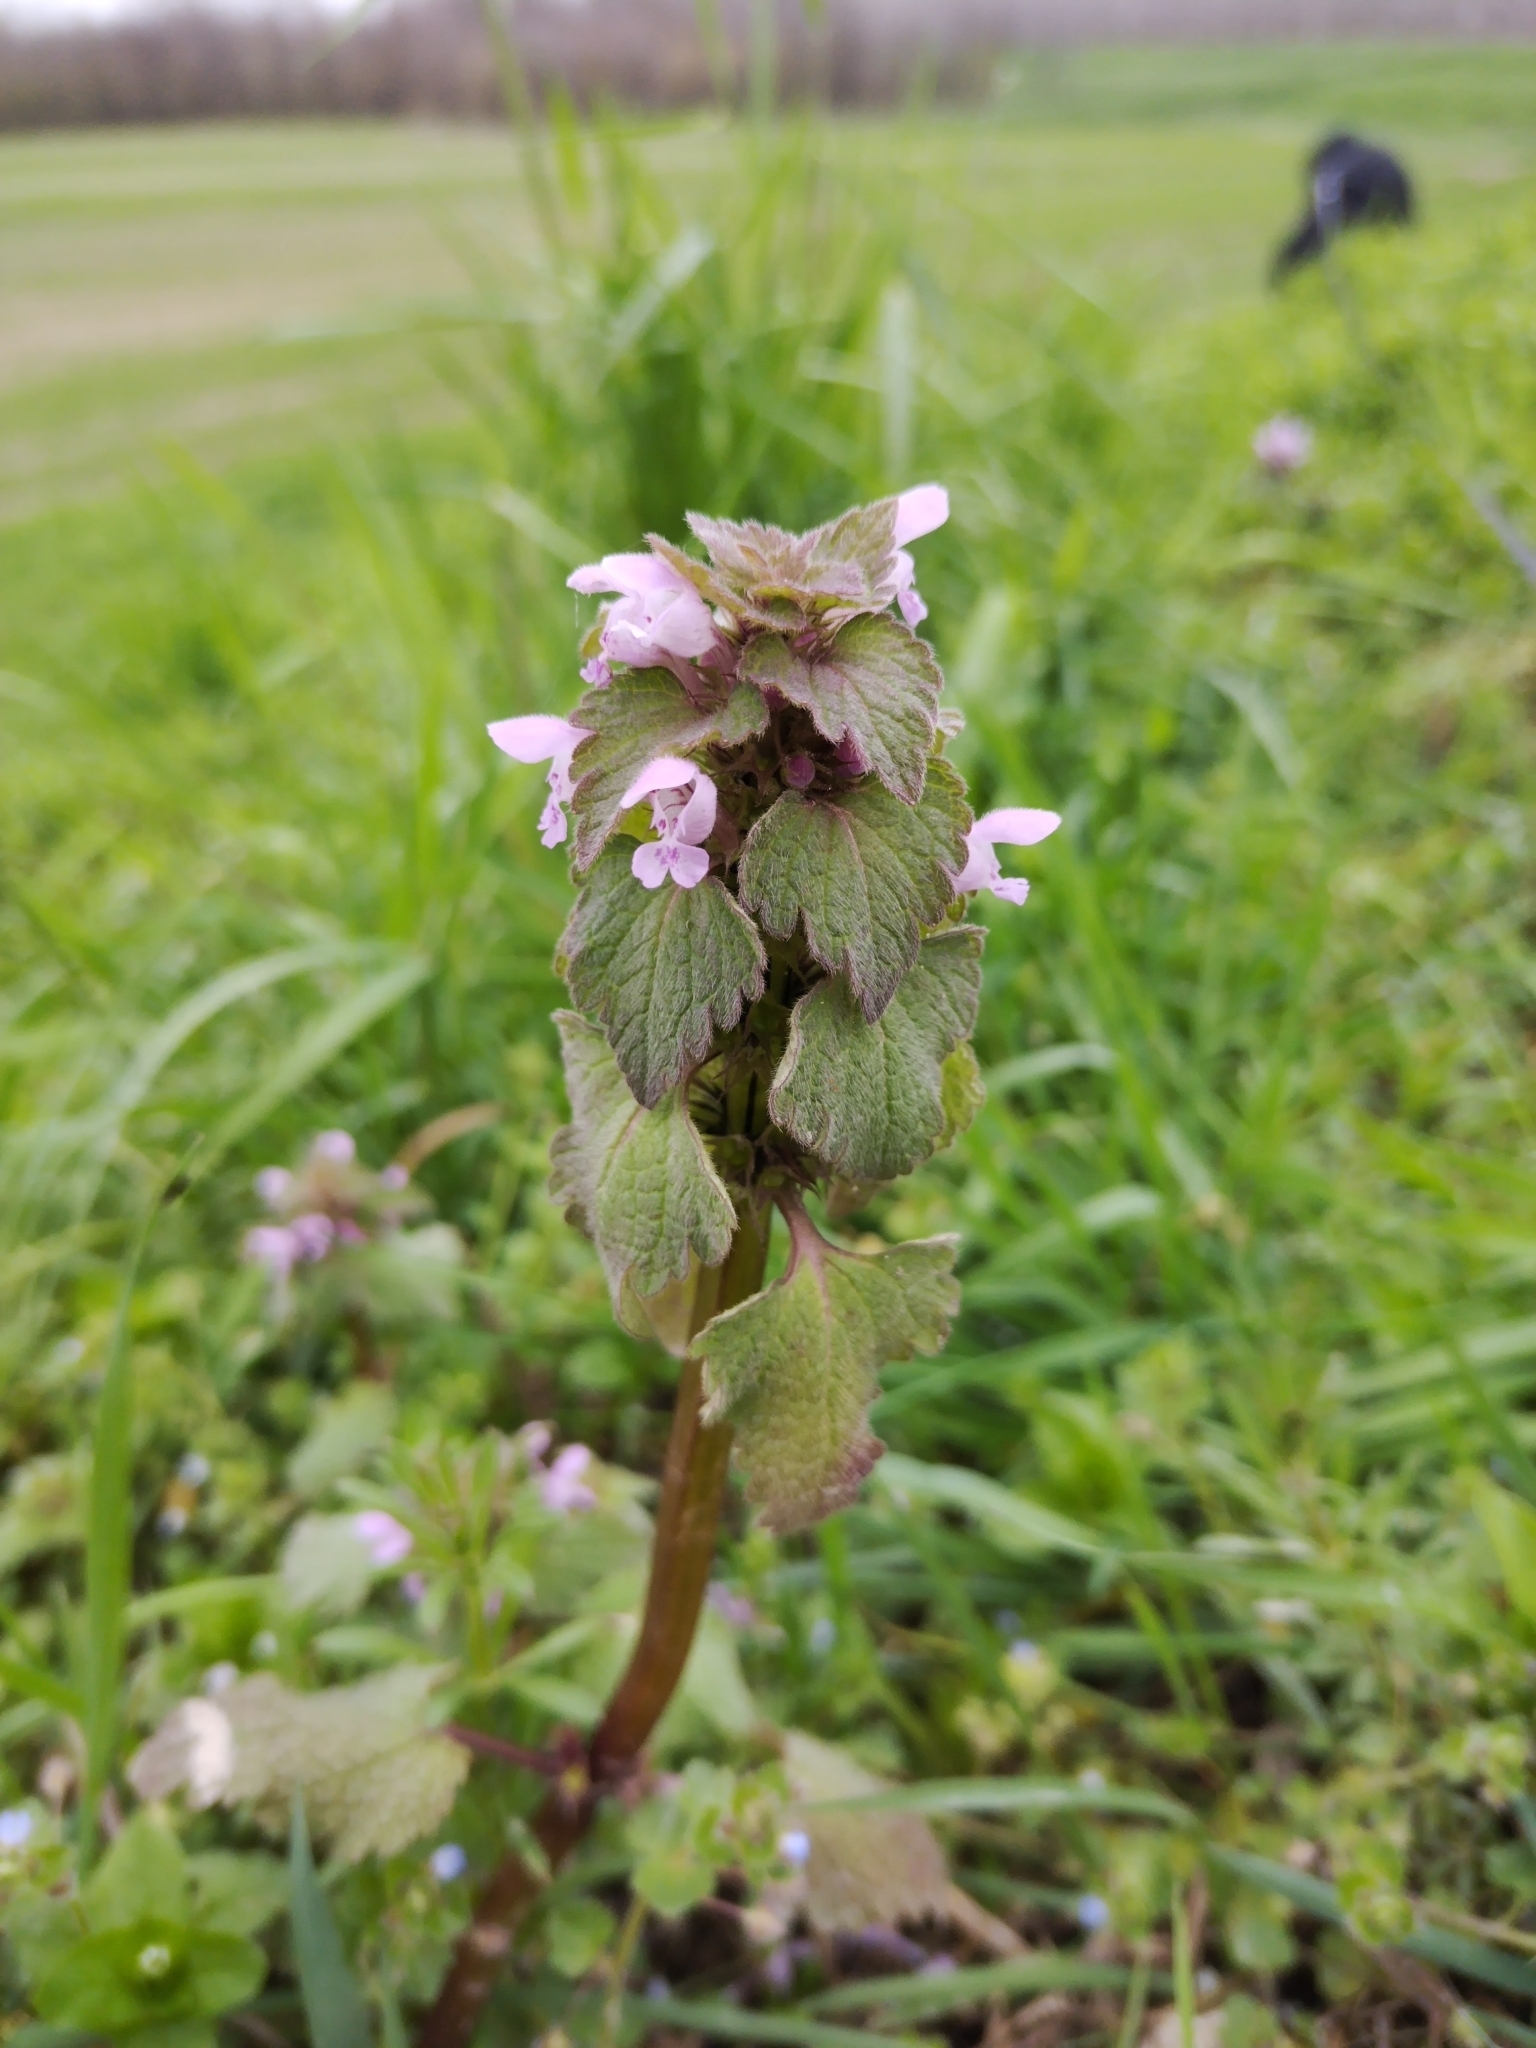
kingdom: Plantae
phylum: Tracheophyta
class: Magnoliopsida
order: Lamiales
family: Lamiaceae
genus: Lamium
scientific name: Lamium purpureum
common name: Red dead-nettle
